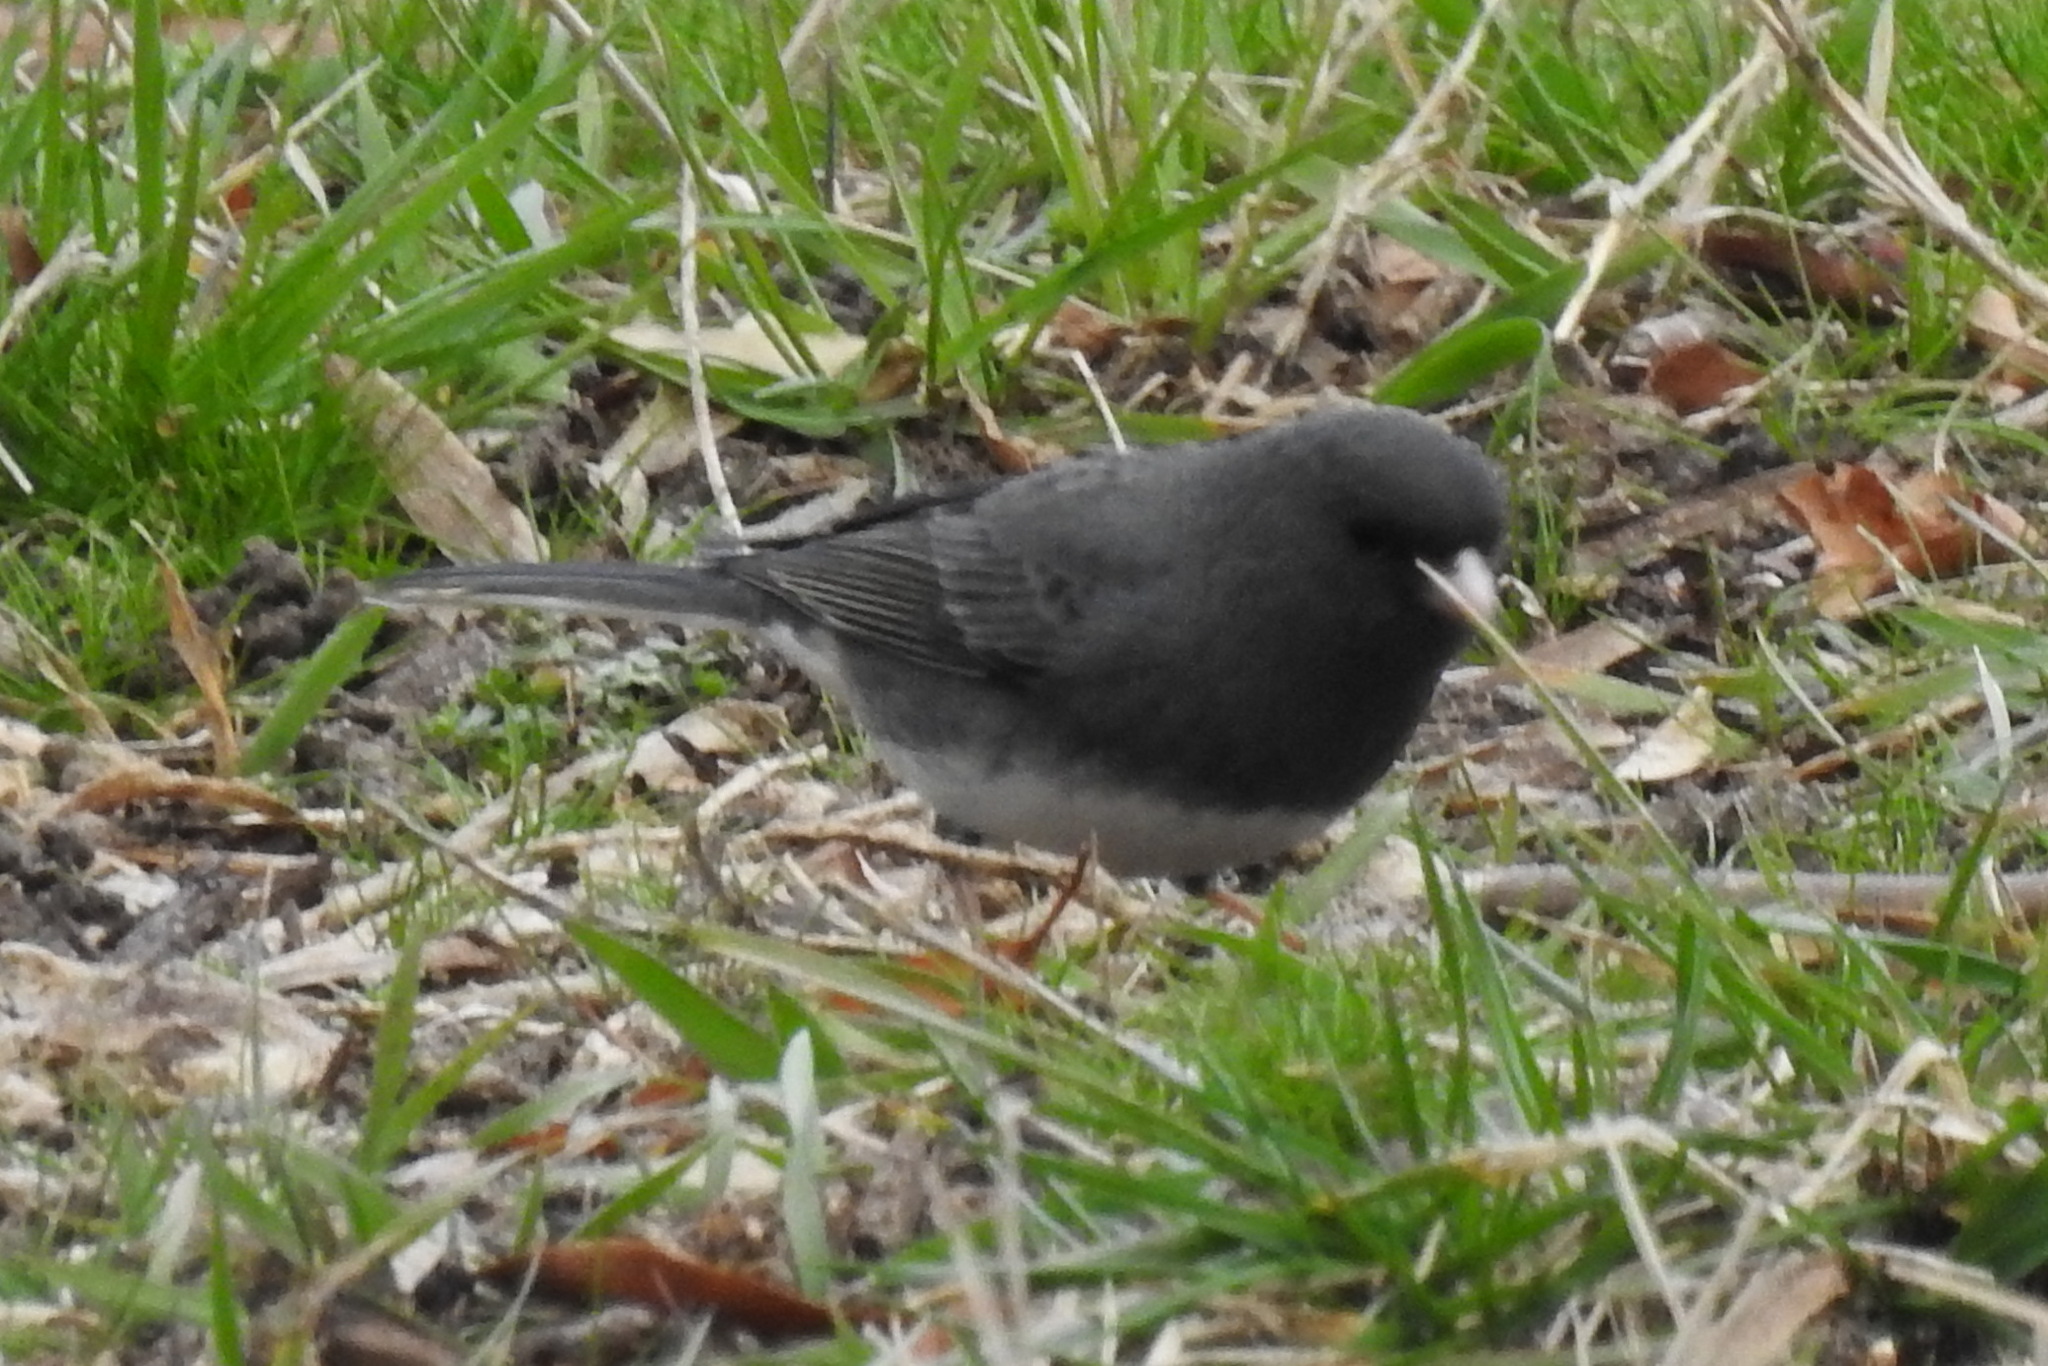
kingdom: Animalia
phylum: Chordata
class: Aves
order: Passeriformes
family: Passerellidae
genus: Junco
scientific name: Junco hyemalis
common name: Dark-eyed junco
